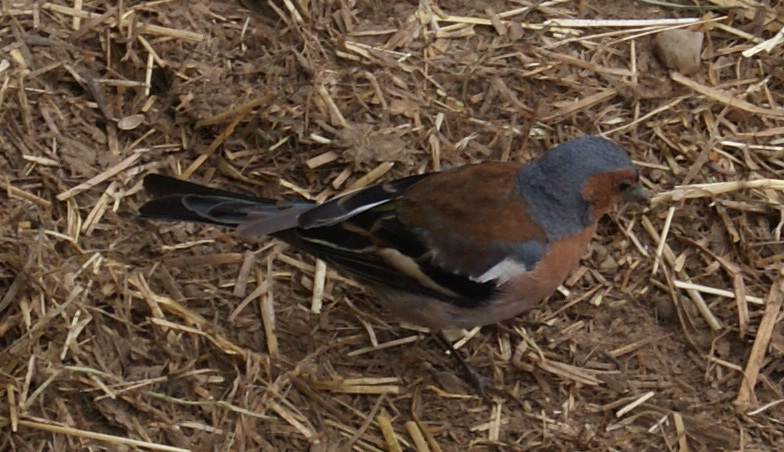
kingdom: Animalia
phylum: Chordata
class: Aves
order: Passeriformes
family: Fringillidae
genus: Fringilla
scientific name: Fringilla coelebs
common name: Common chaffinch
